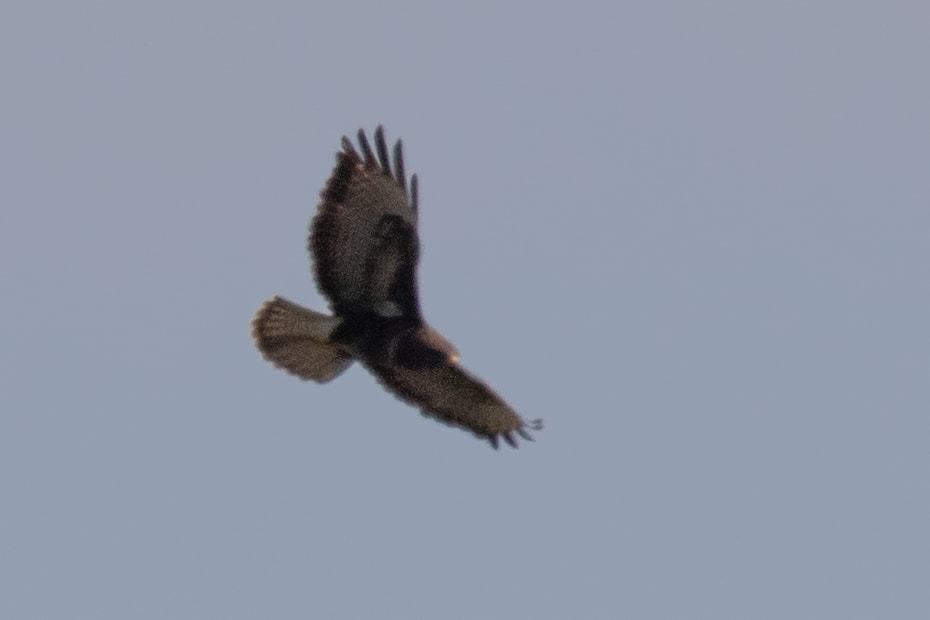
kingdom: Animalia
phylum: Chordata
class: Aves
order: Accipitriformes
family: Accipitridae
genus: Buteo
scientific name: Buteo buteo
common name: Common buzzard
